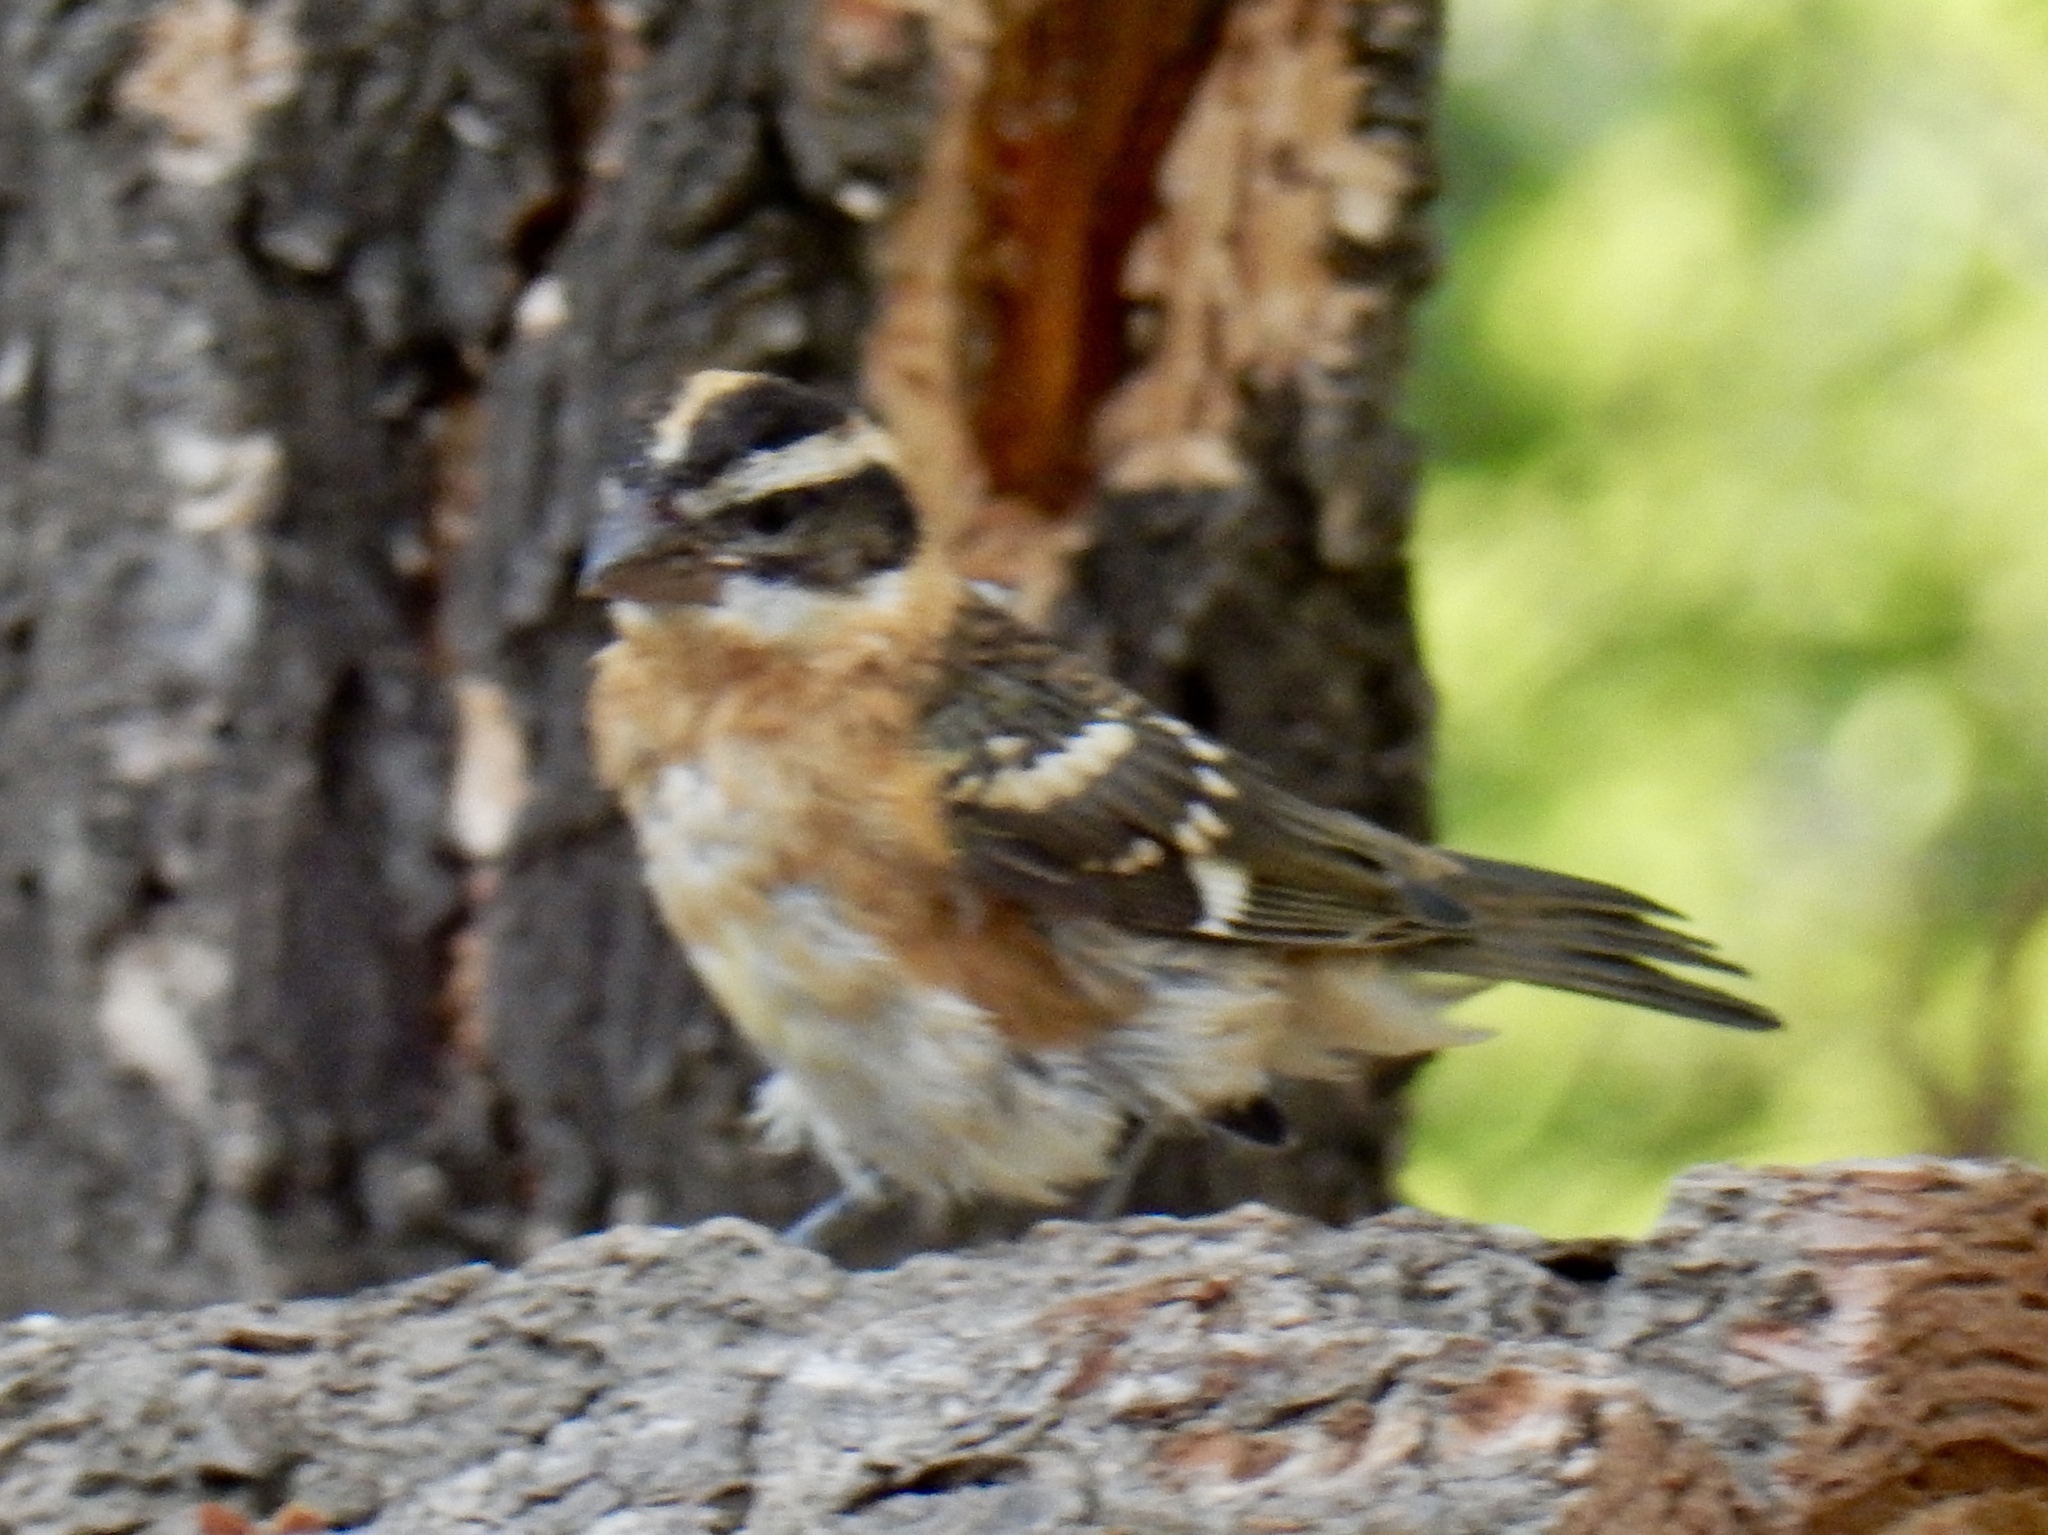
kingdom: Animalia
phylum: Chordata
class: Aves
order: Passeriformes
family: Cardinalidae
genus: Pheucticus
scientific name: Pheucticus melanocephalus
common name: Black-headed grosbeak
